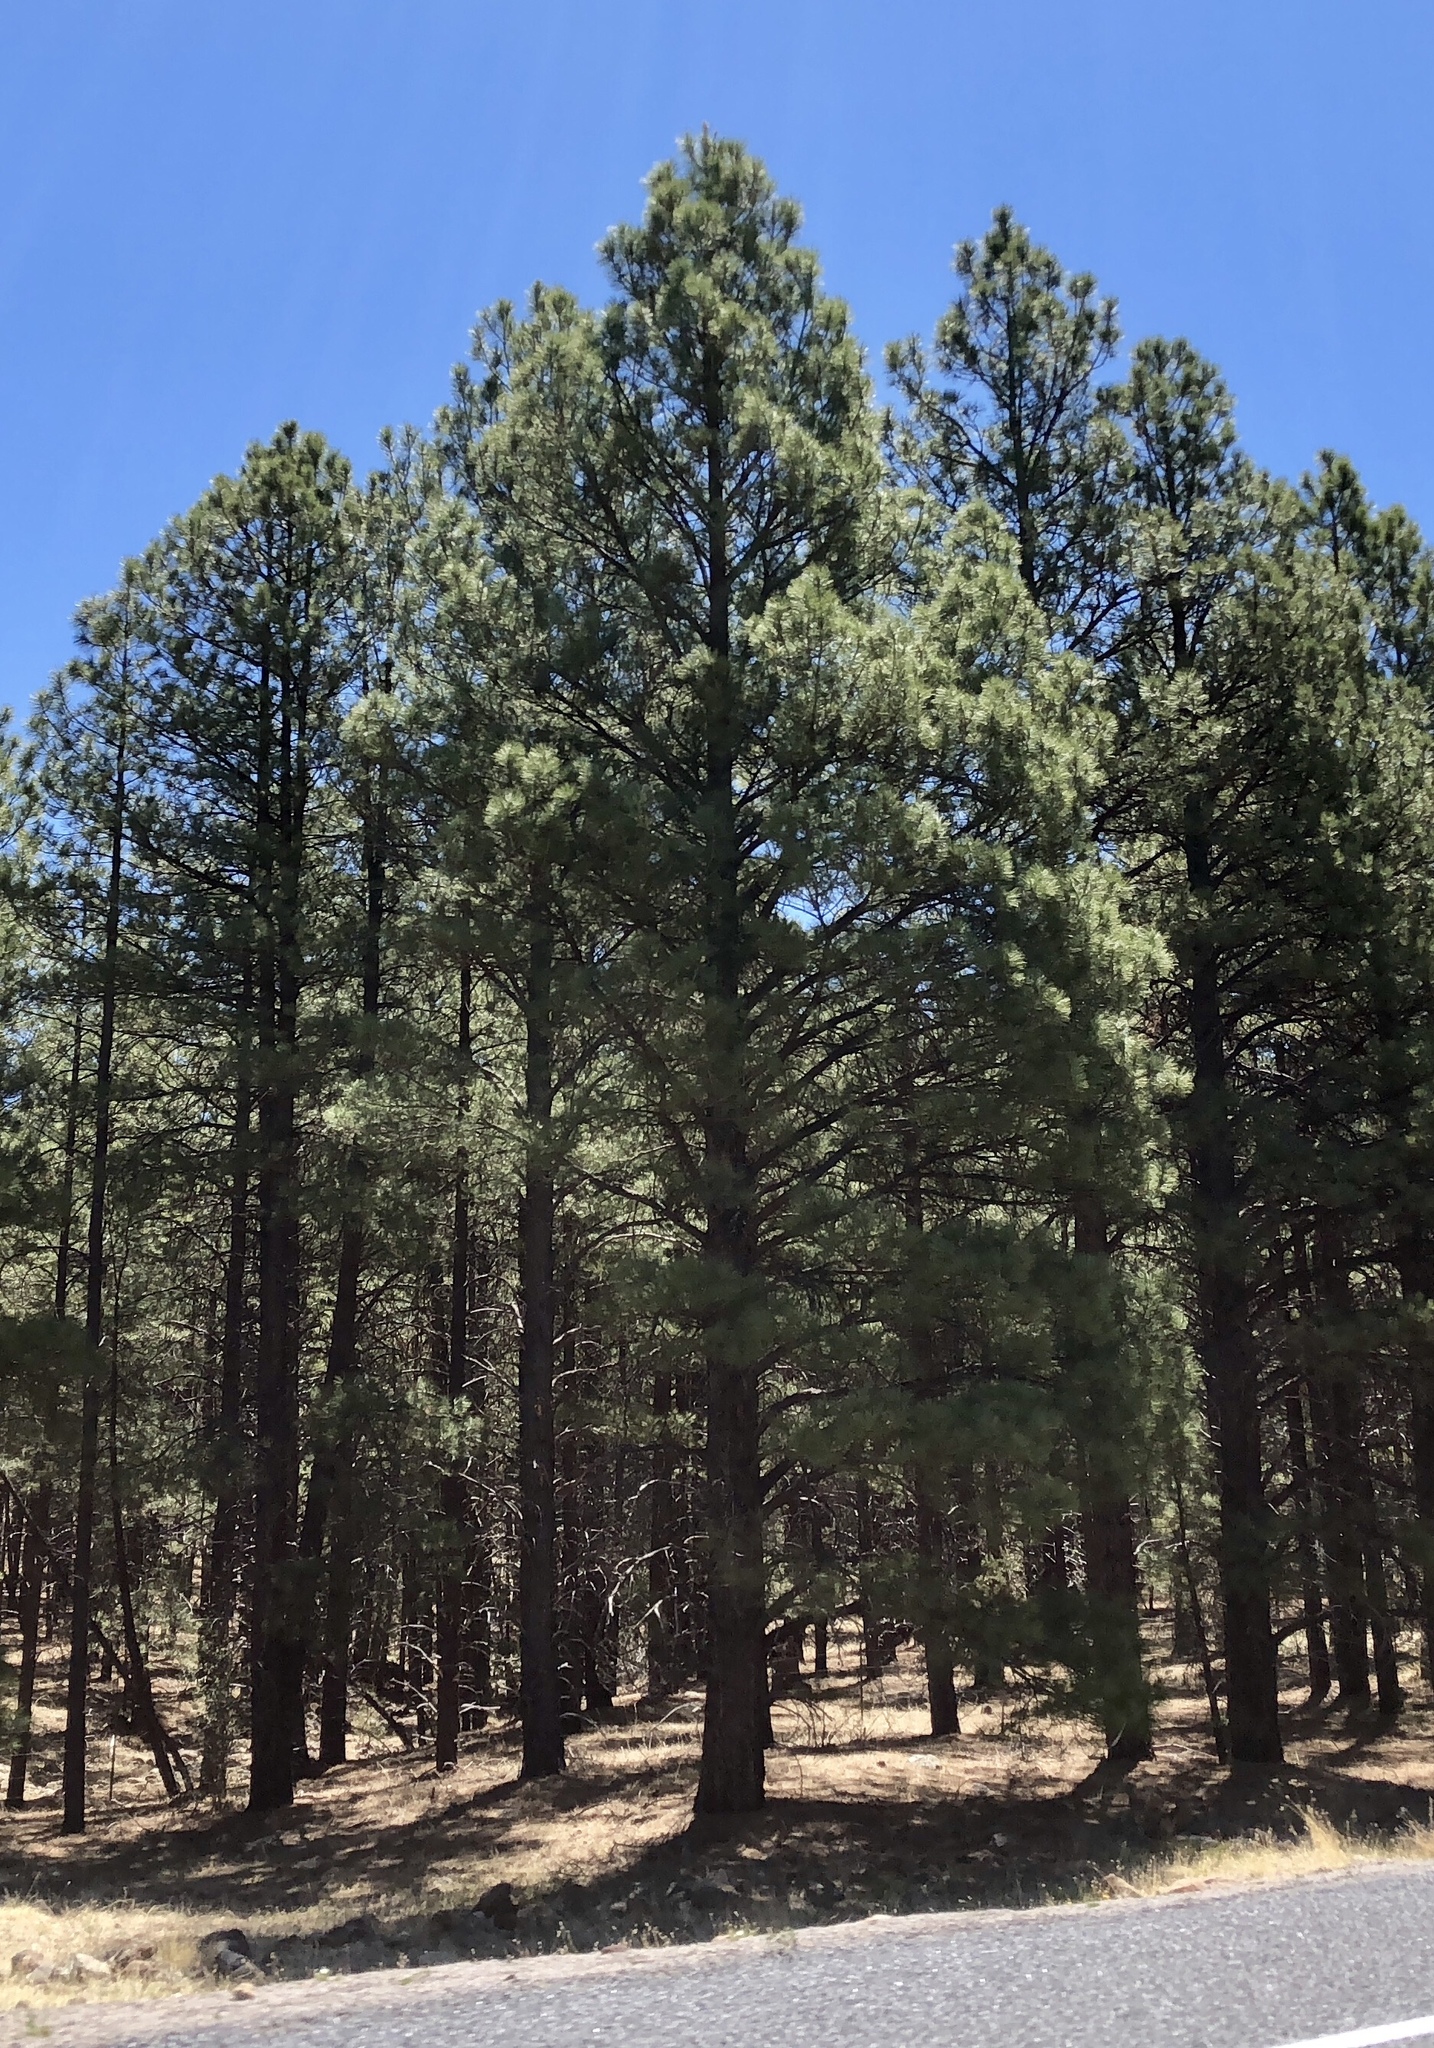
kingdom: Plantae
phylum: Tracheophyta
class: Pinopsida
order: Pinales
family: Pinaceae
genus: Pinus
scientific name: Pinus ponderosa
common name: Western yellow-pine
